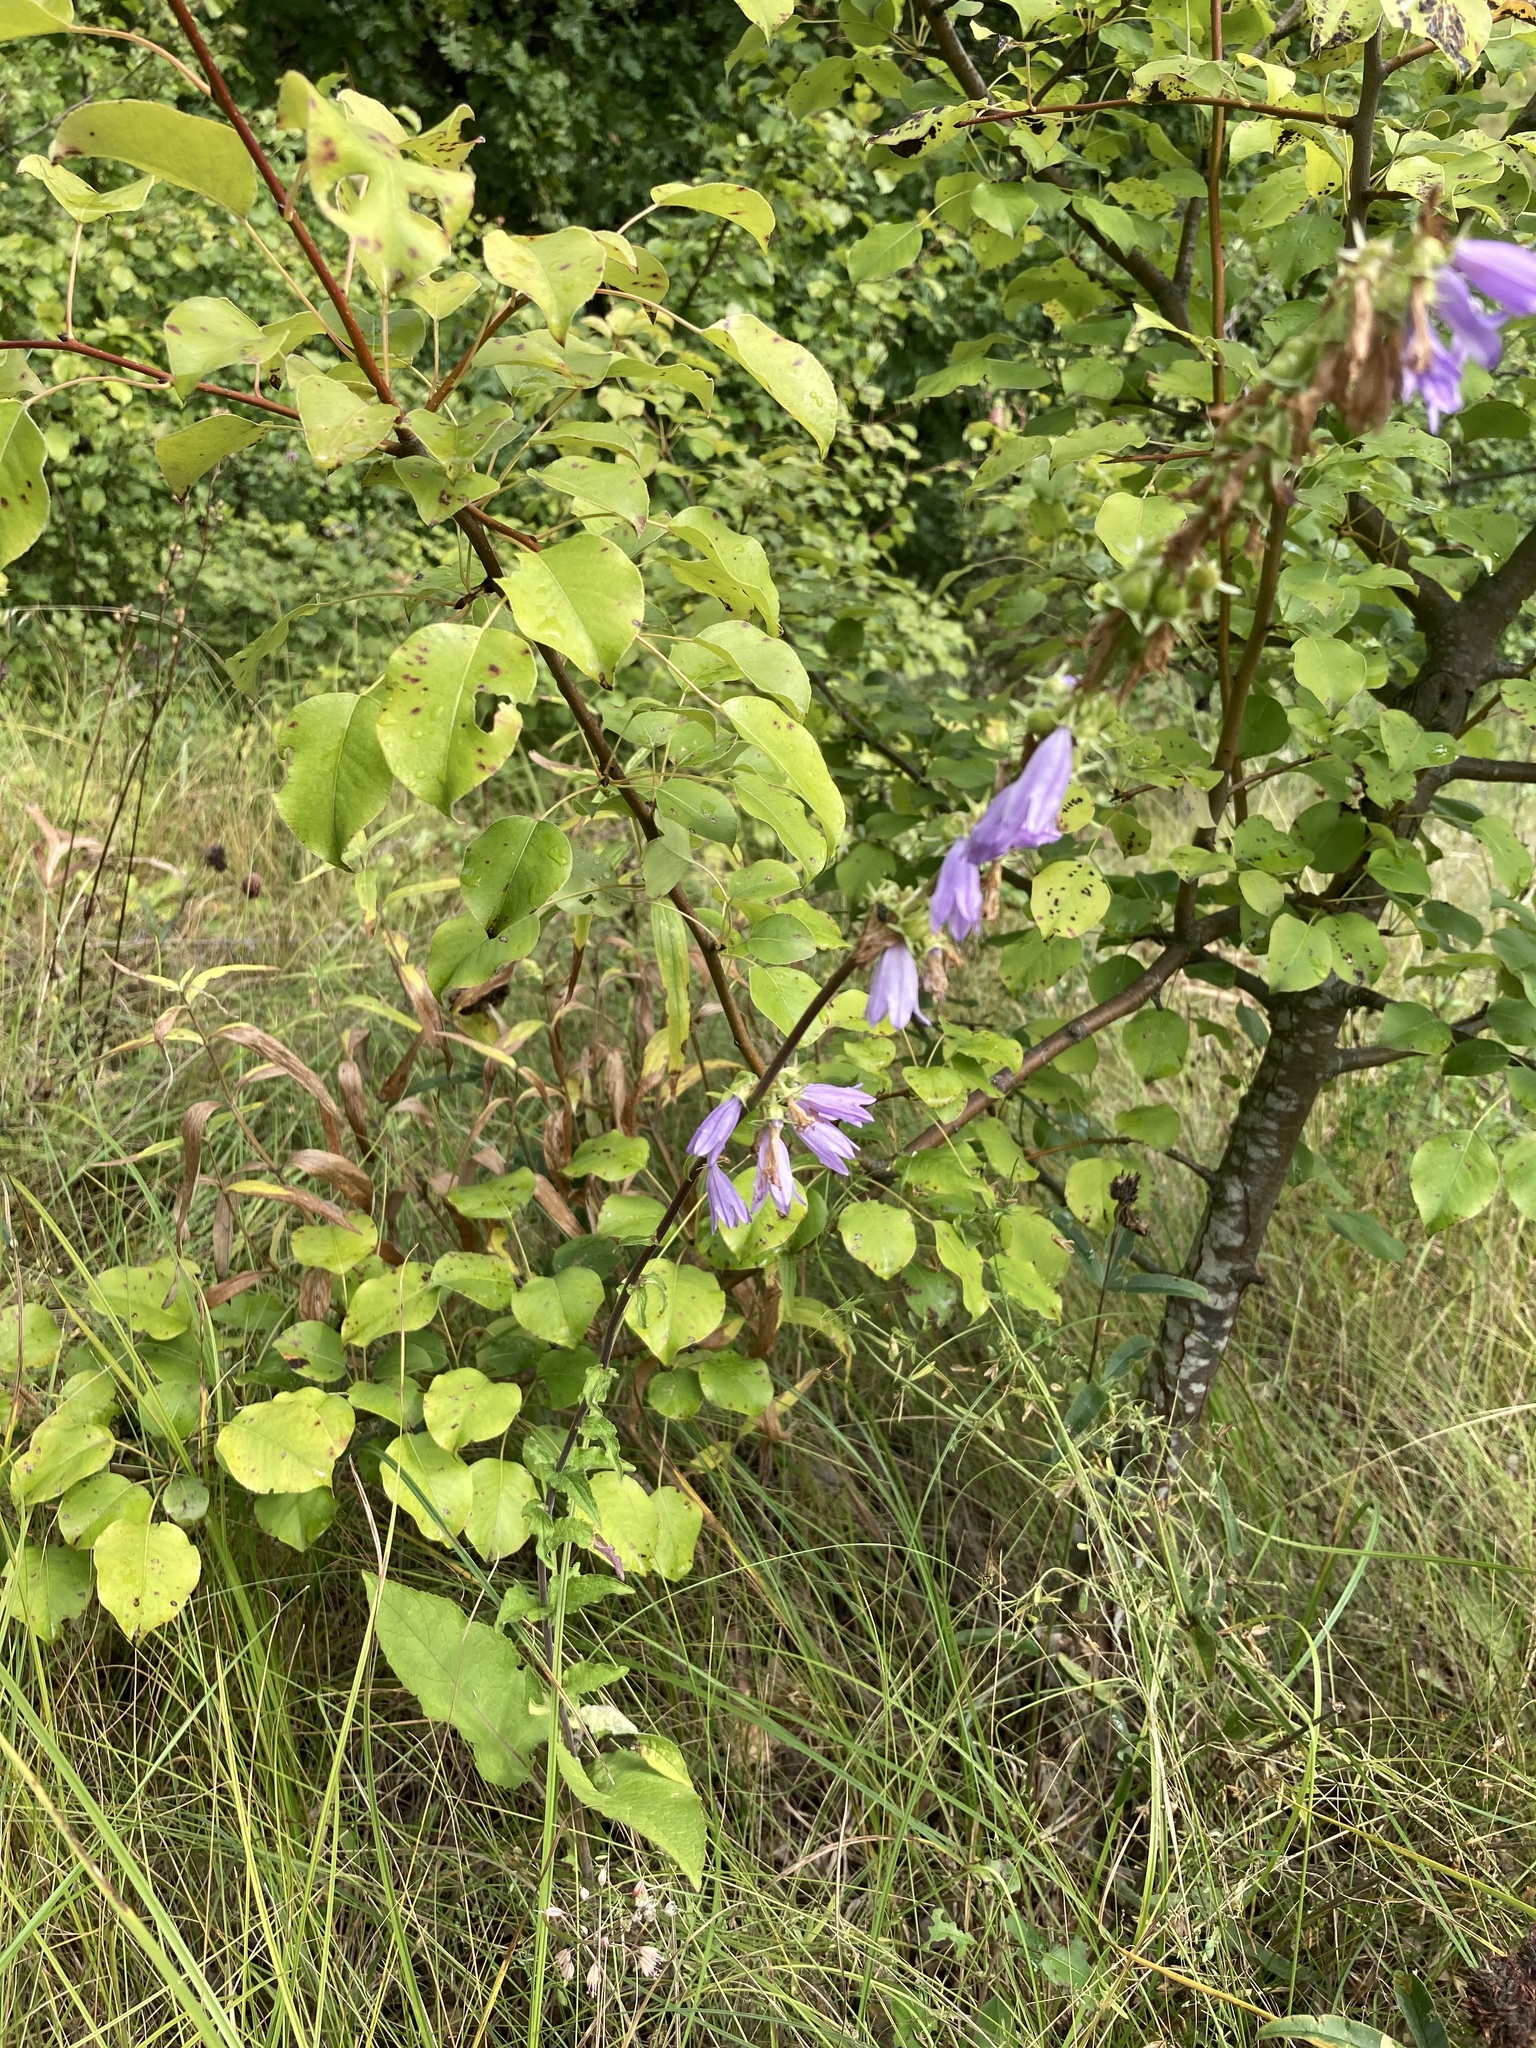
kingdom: Plantae
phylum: Tracheophyta
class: Magnoliopsida
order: Asterales
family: Campanulaceae
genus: Campanula
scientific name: Campanula bononiensis
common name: Pale bellflower
